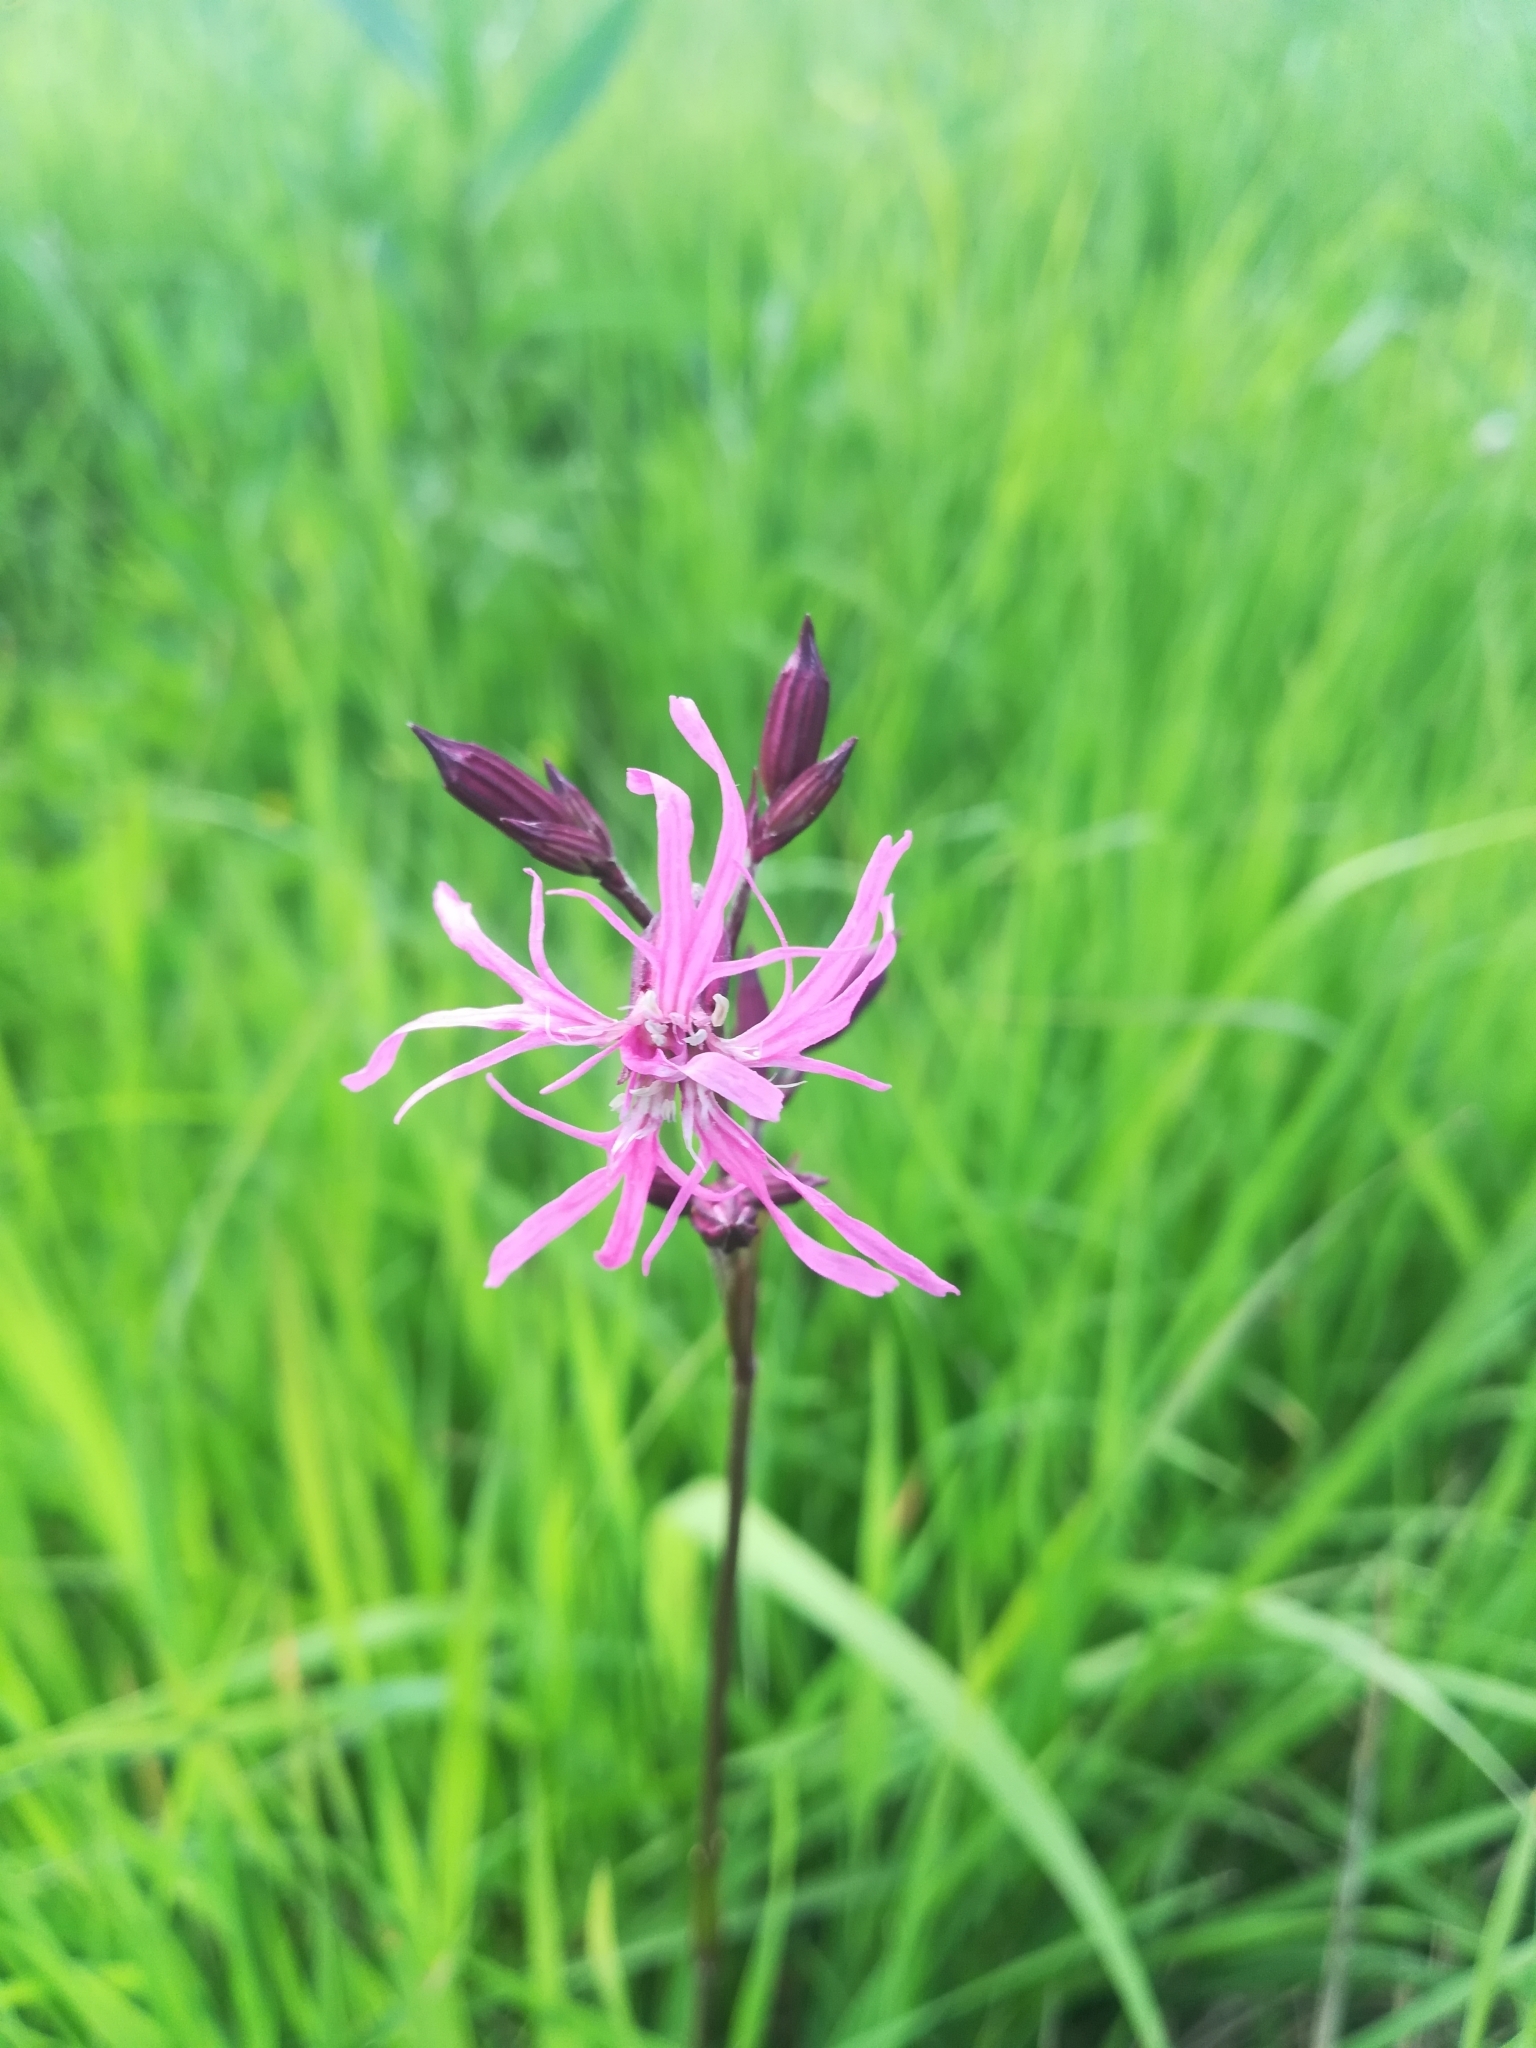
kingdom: Plantae
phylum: Tracheophyta
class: Magnoliopsida
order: Caryophyllales
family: Caryophyllaceae
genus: Silene
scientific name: Silene flos-cuculi
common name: Ragged-robin
